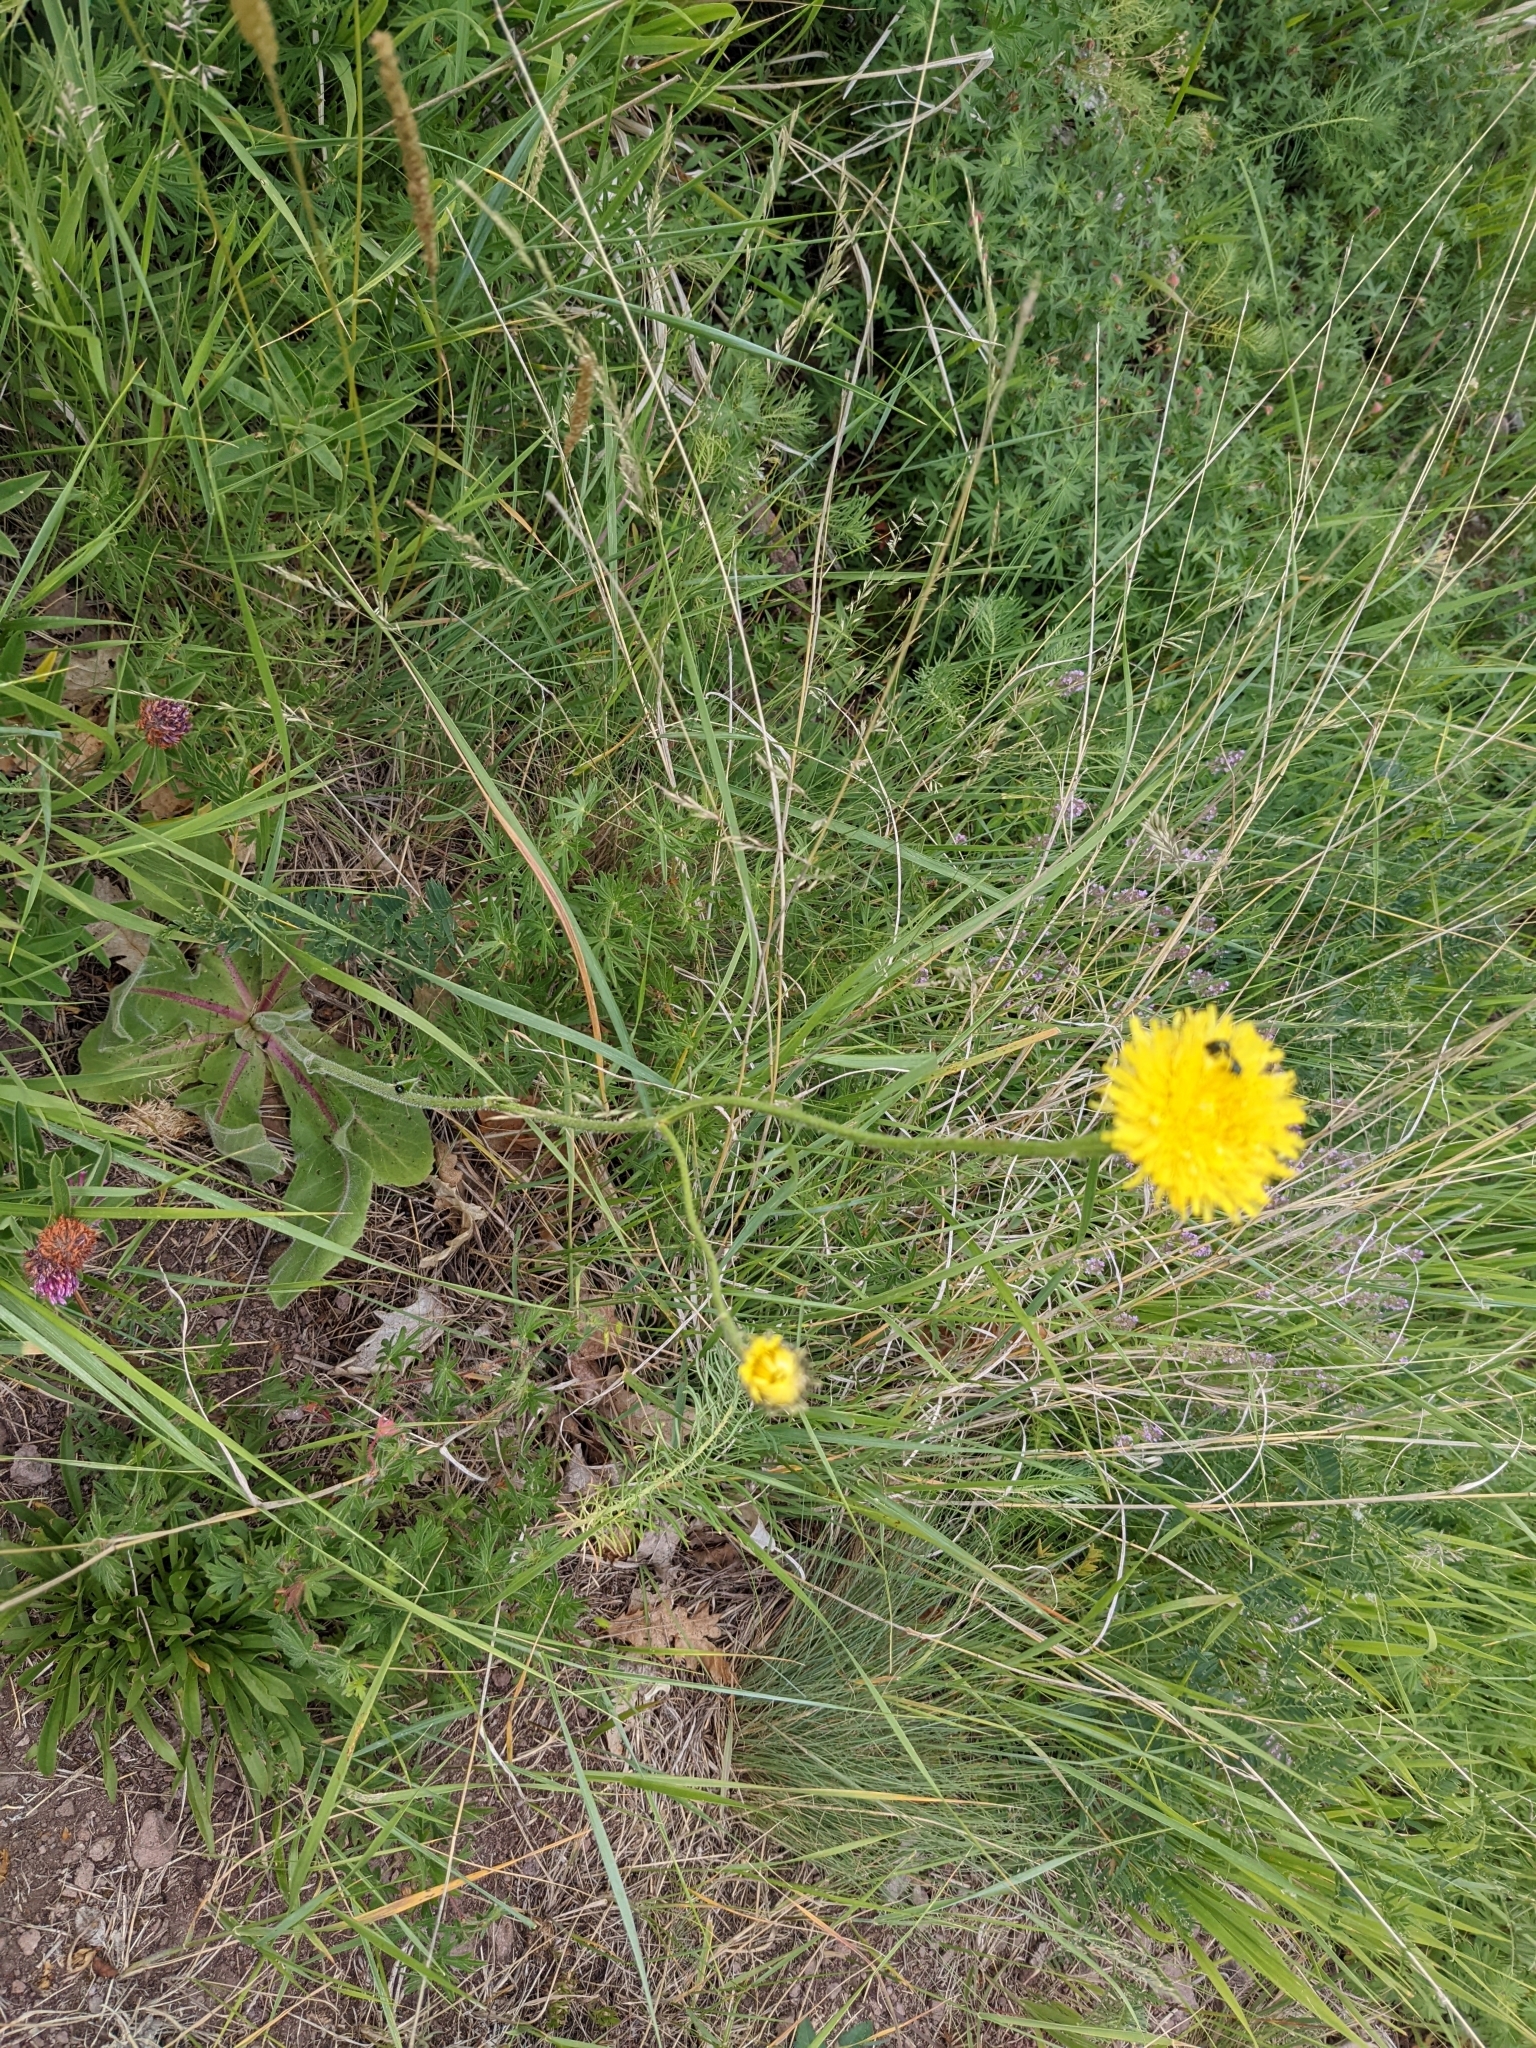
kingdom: Plantae
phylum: Tracheophyta
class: Magnoliopsida
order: Asterales
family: Asteraceae
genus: Trommsdorffia
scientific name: Trommsdorffia maculata
